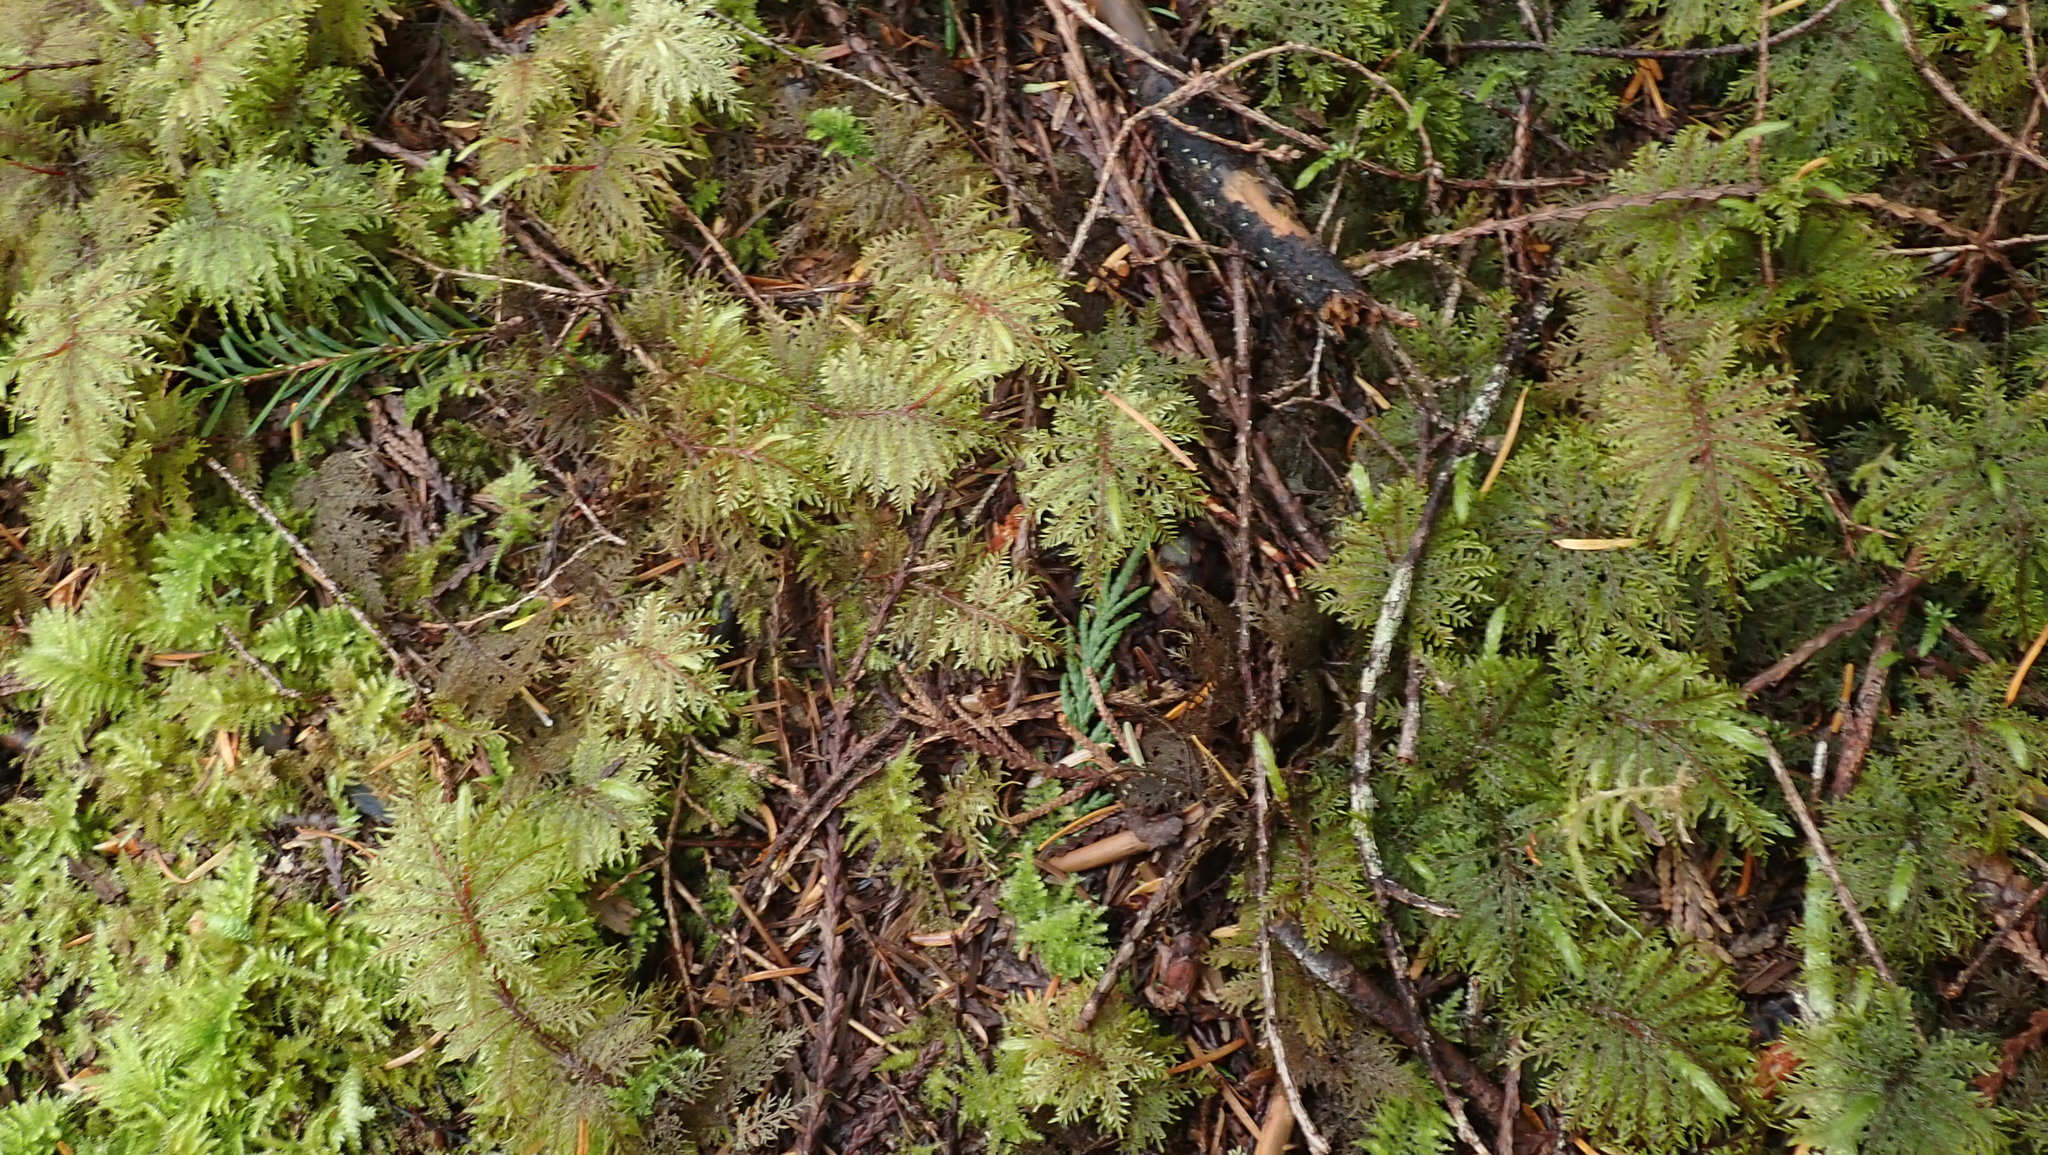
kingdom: Plantae
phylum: Bryophyta
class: Bryopsida
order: Hypnales
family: Hylocomiaceae
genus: Hylocomium
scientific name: Hylocomium splendens
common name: Stairstep moss
